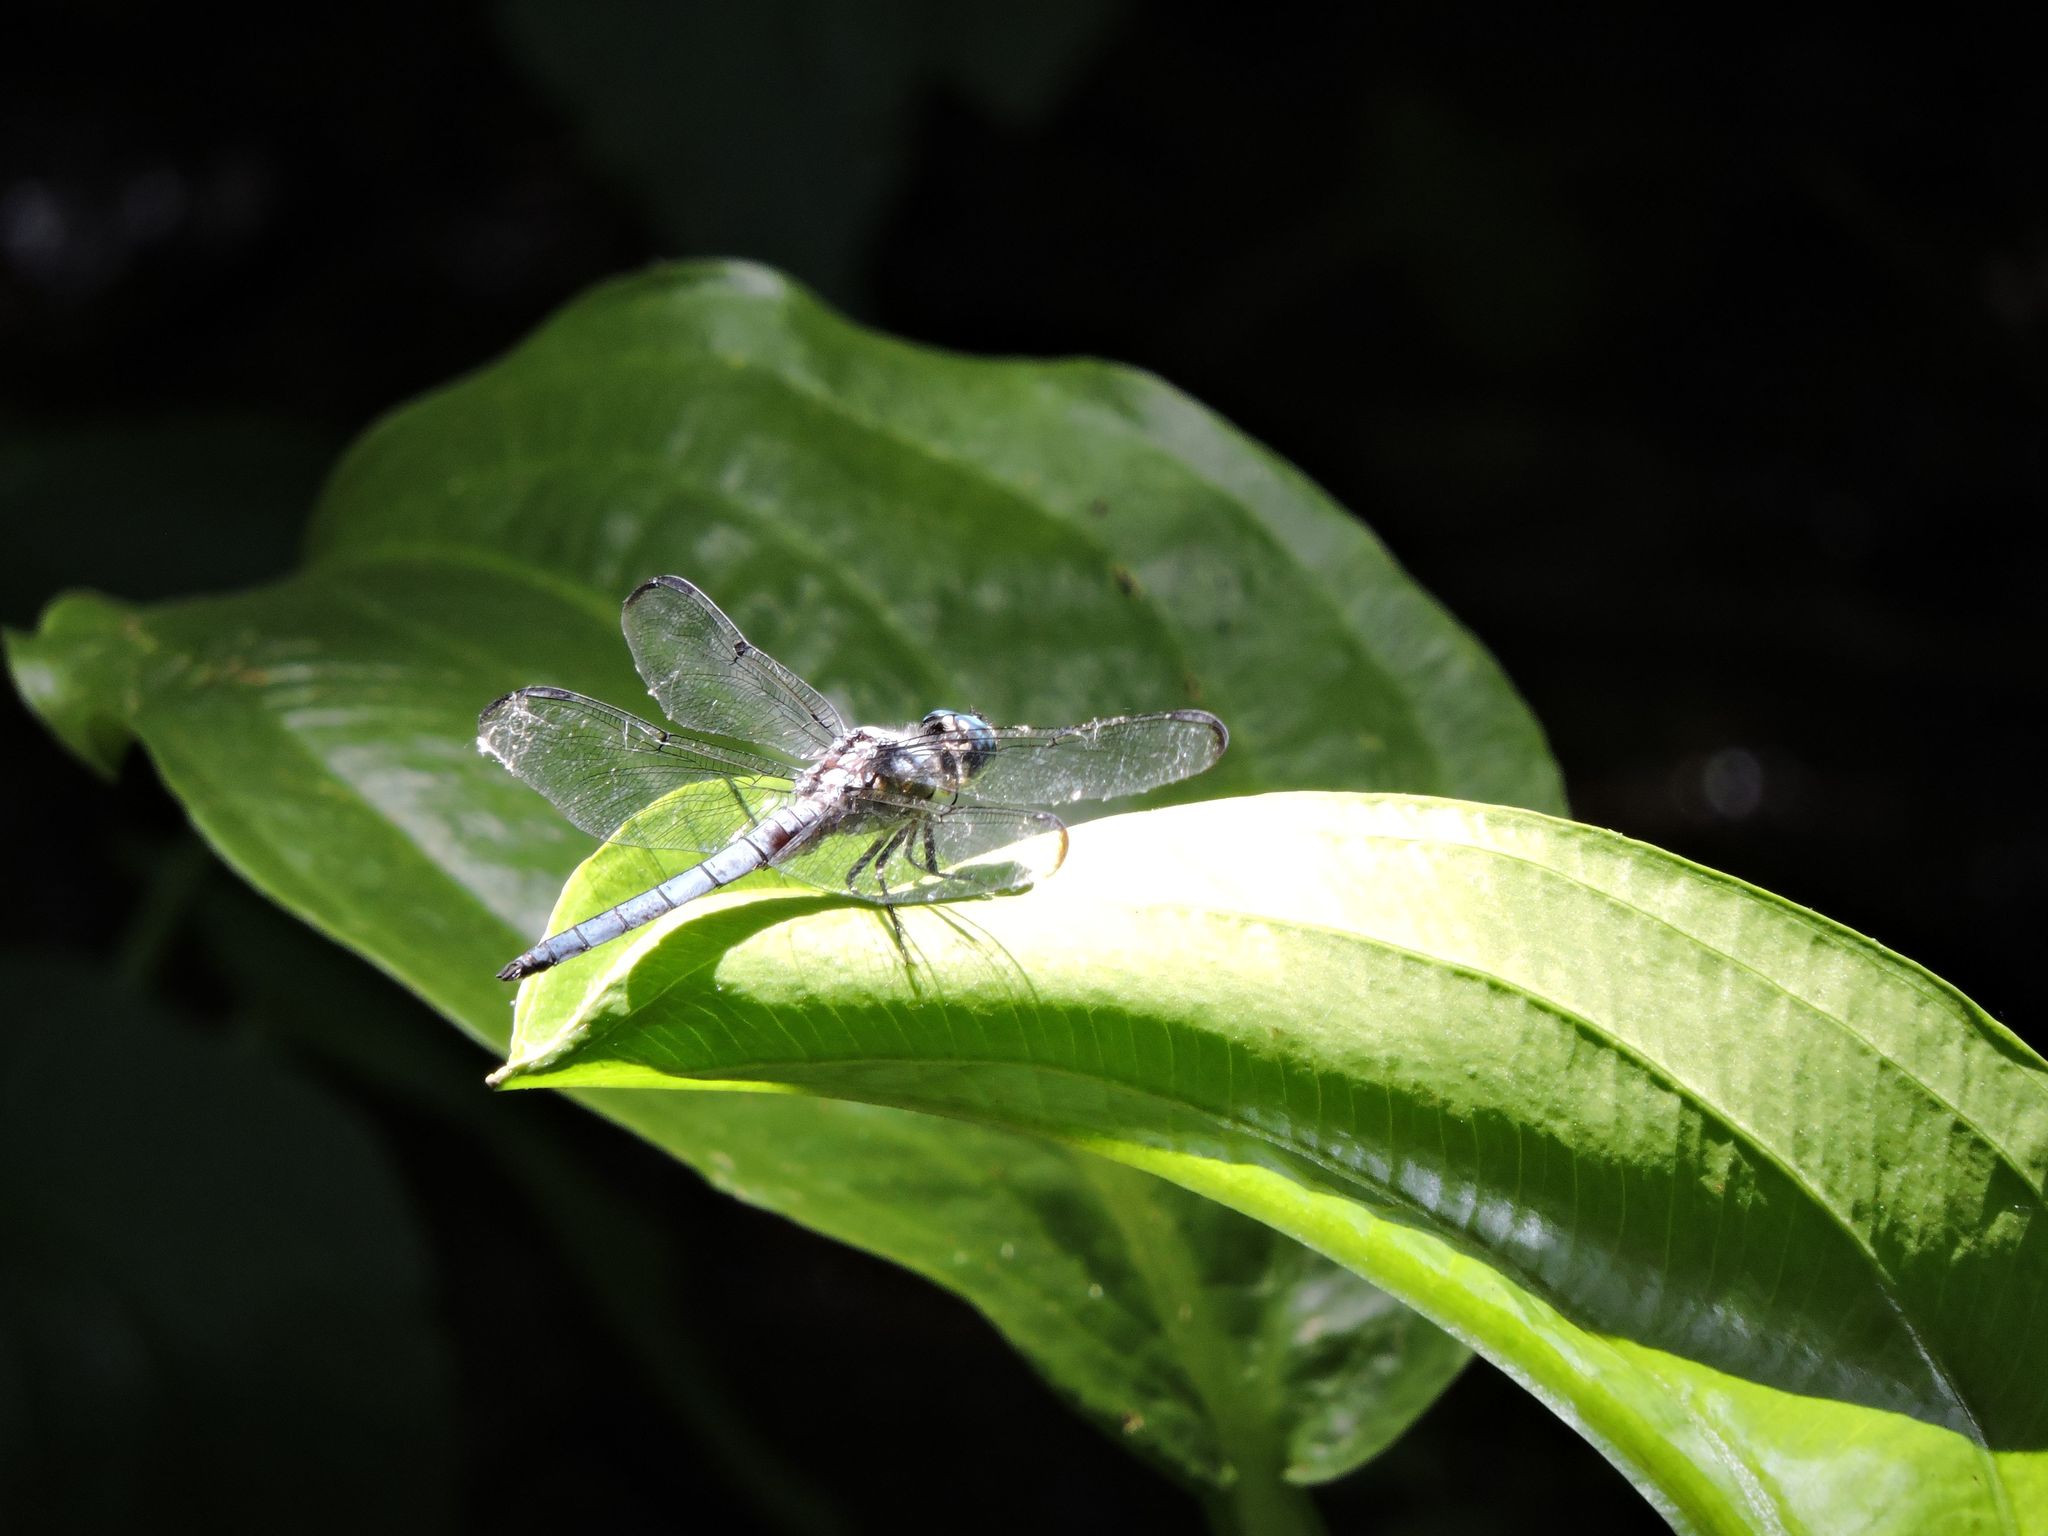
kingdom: Animalia
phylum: Arthropoda
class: Insecta
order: Odonata
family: Libellulidae
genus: Libellula
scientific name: Libellula vibrans
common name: Great blue skimmer
